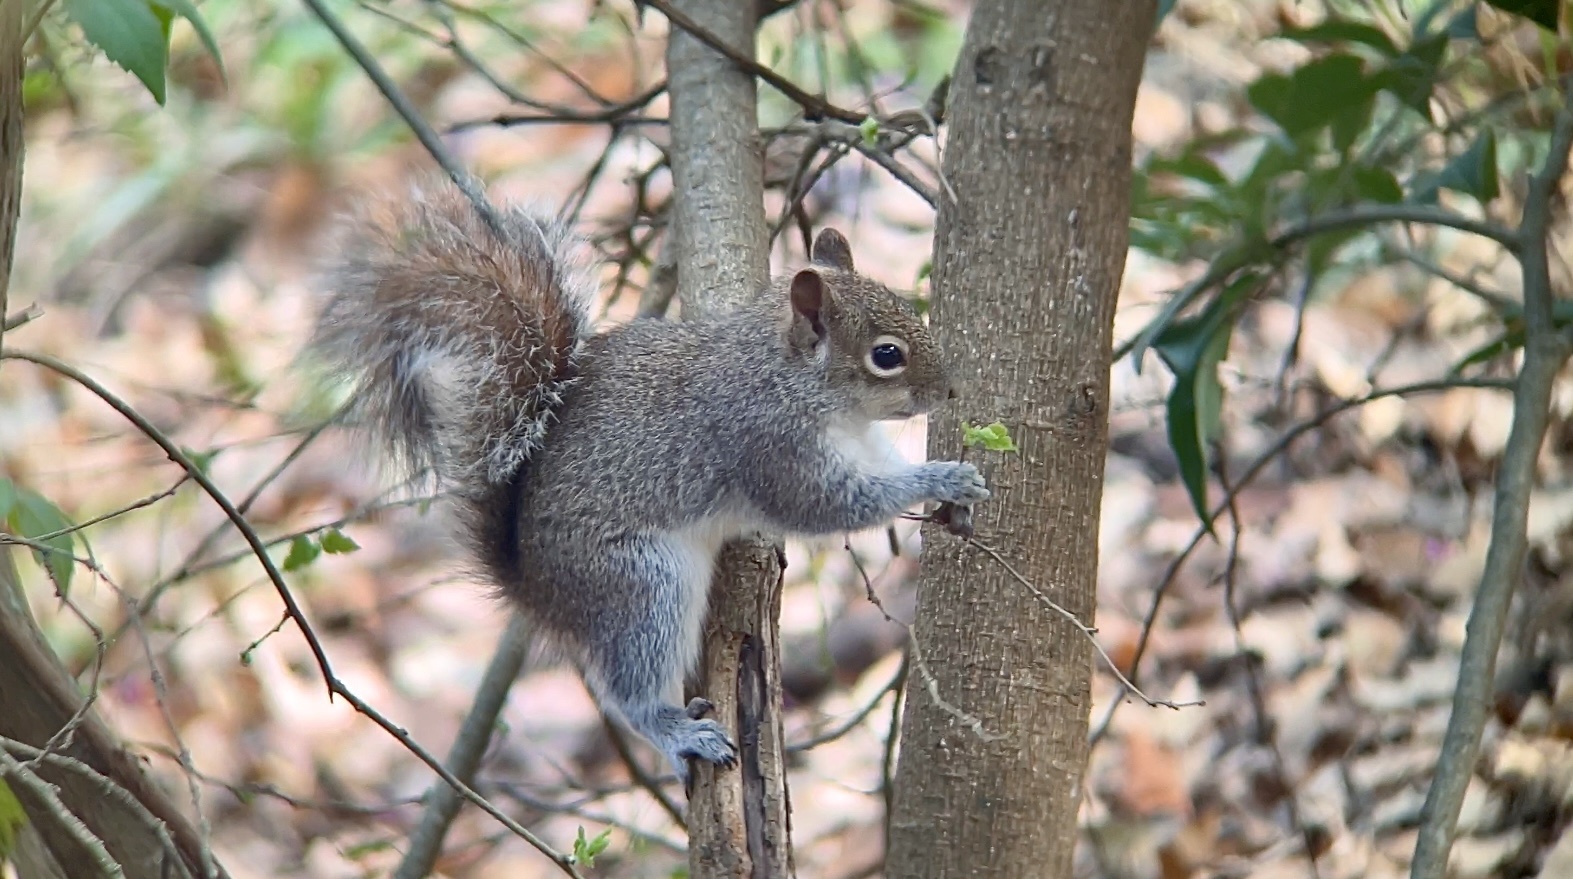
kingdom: Animalia
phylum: Chordata
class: Mammalia
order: Rodentia
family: Sciuridae
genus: Sciurus
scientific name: Sciurus alleni
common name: Allen's squirrel
